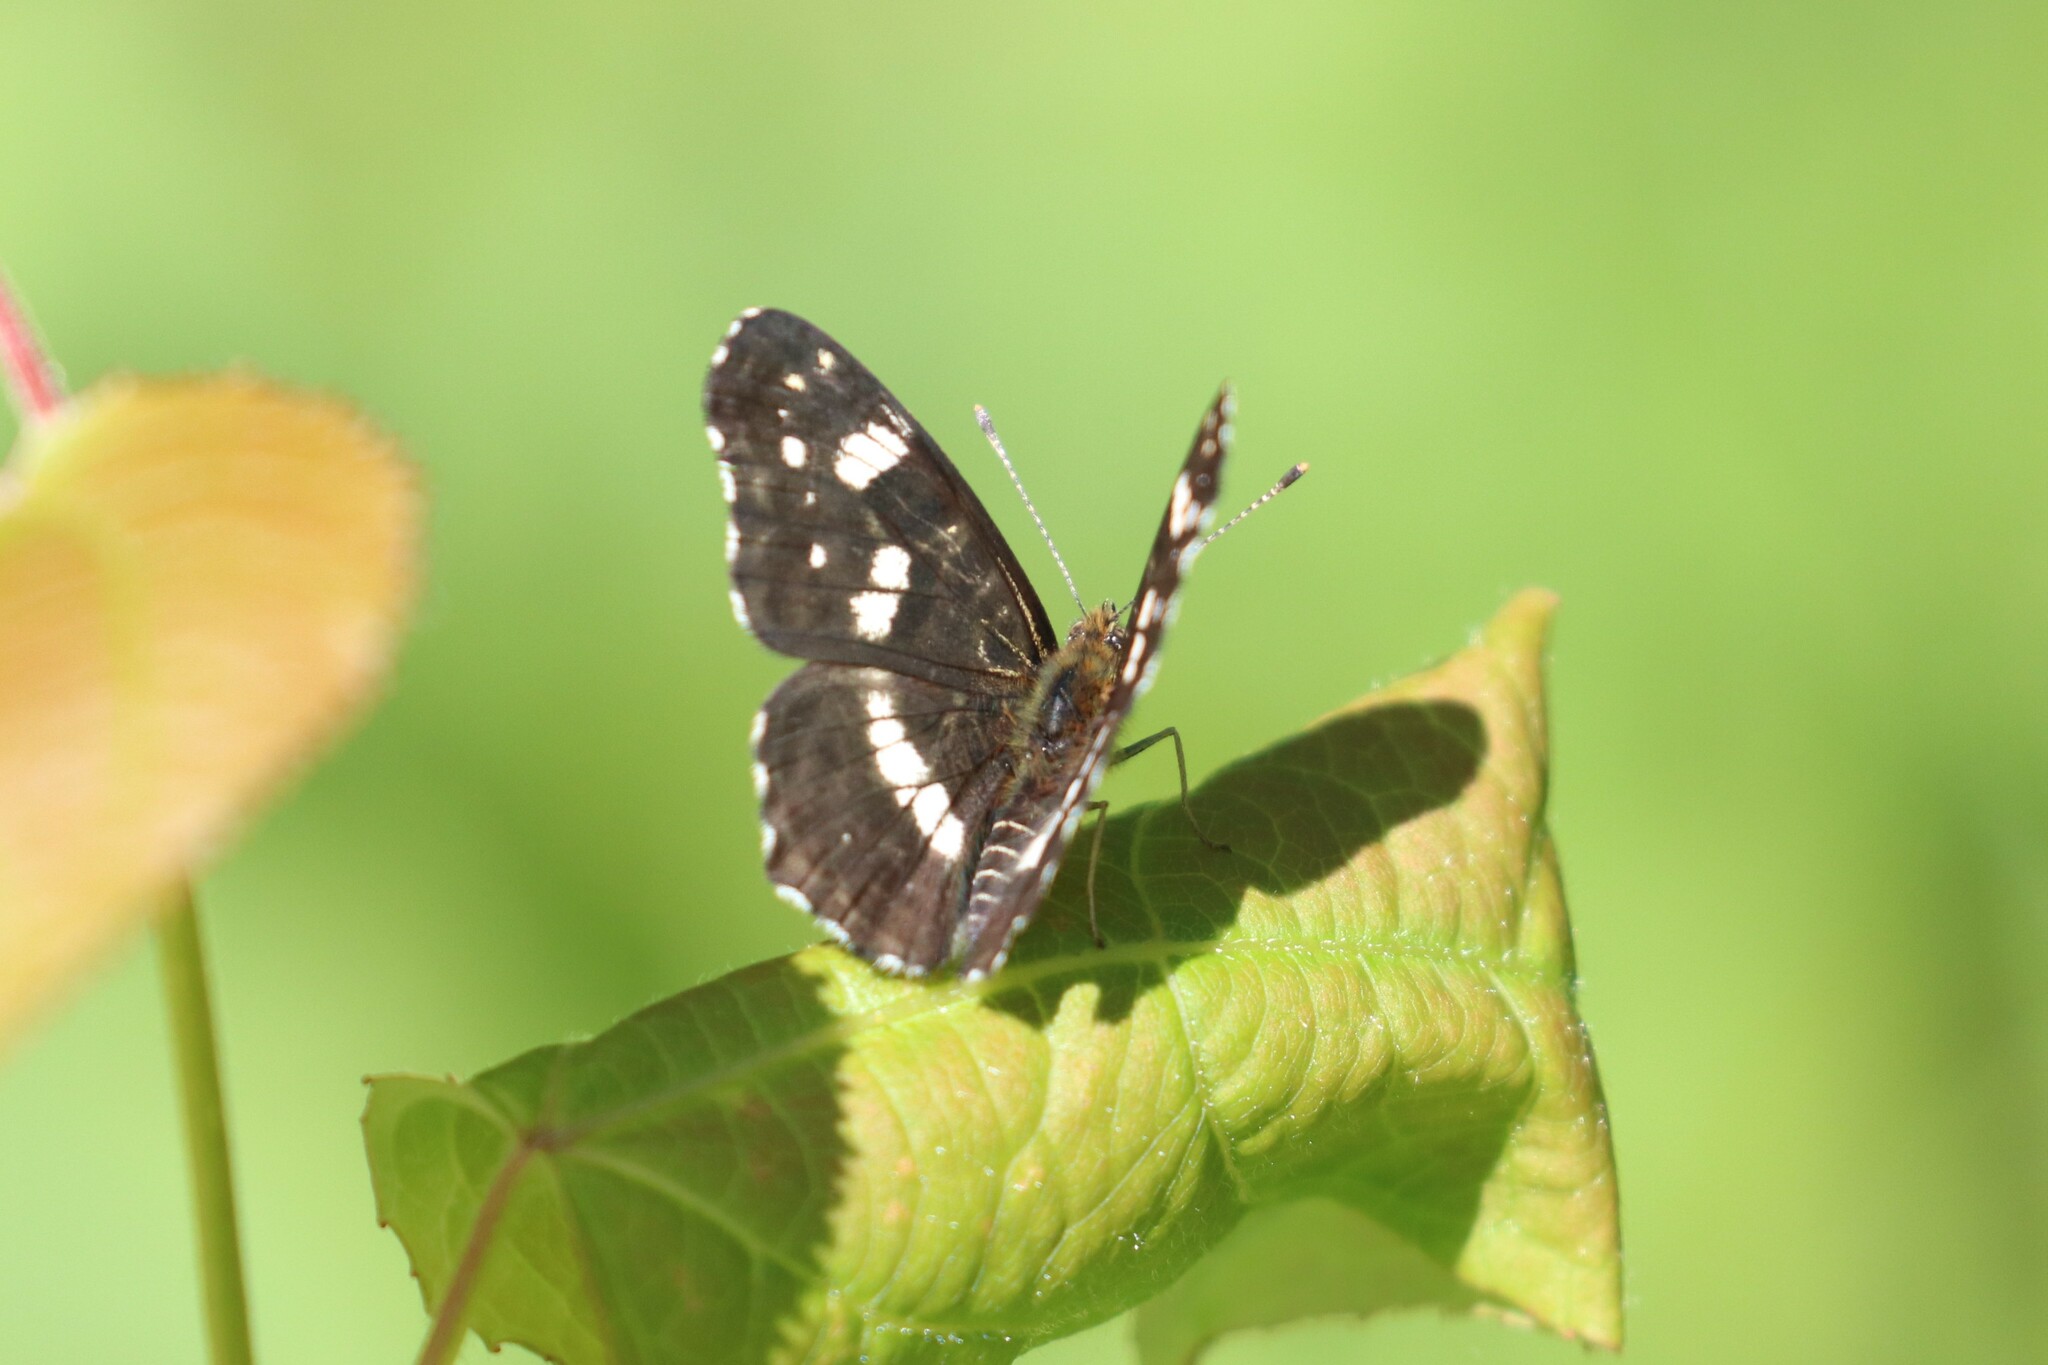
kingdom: Animalia
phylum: Arthropoda
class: Insecta
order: Lepidoptera
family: Nymphalidae
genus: Araschnia
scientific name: Araschnia levana
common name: Map butterfly
